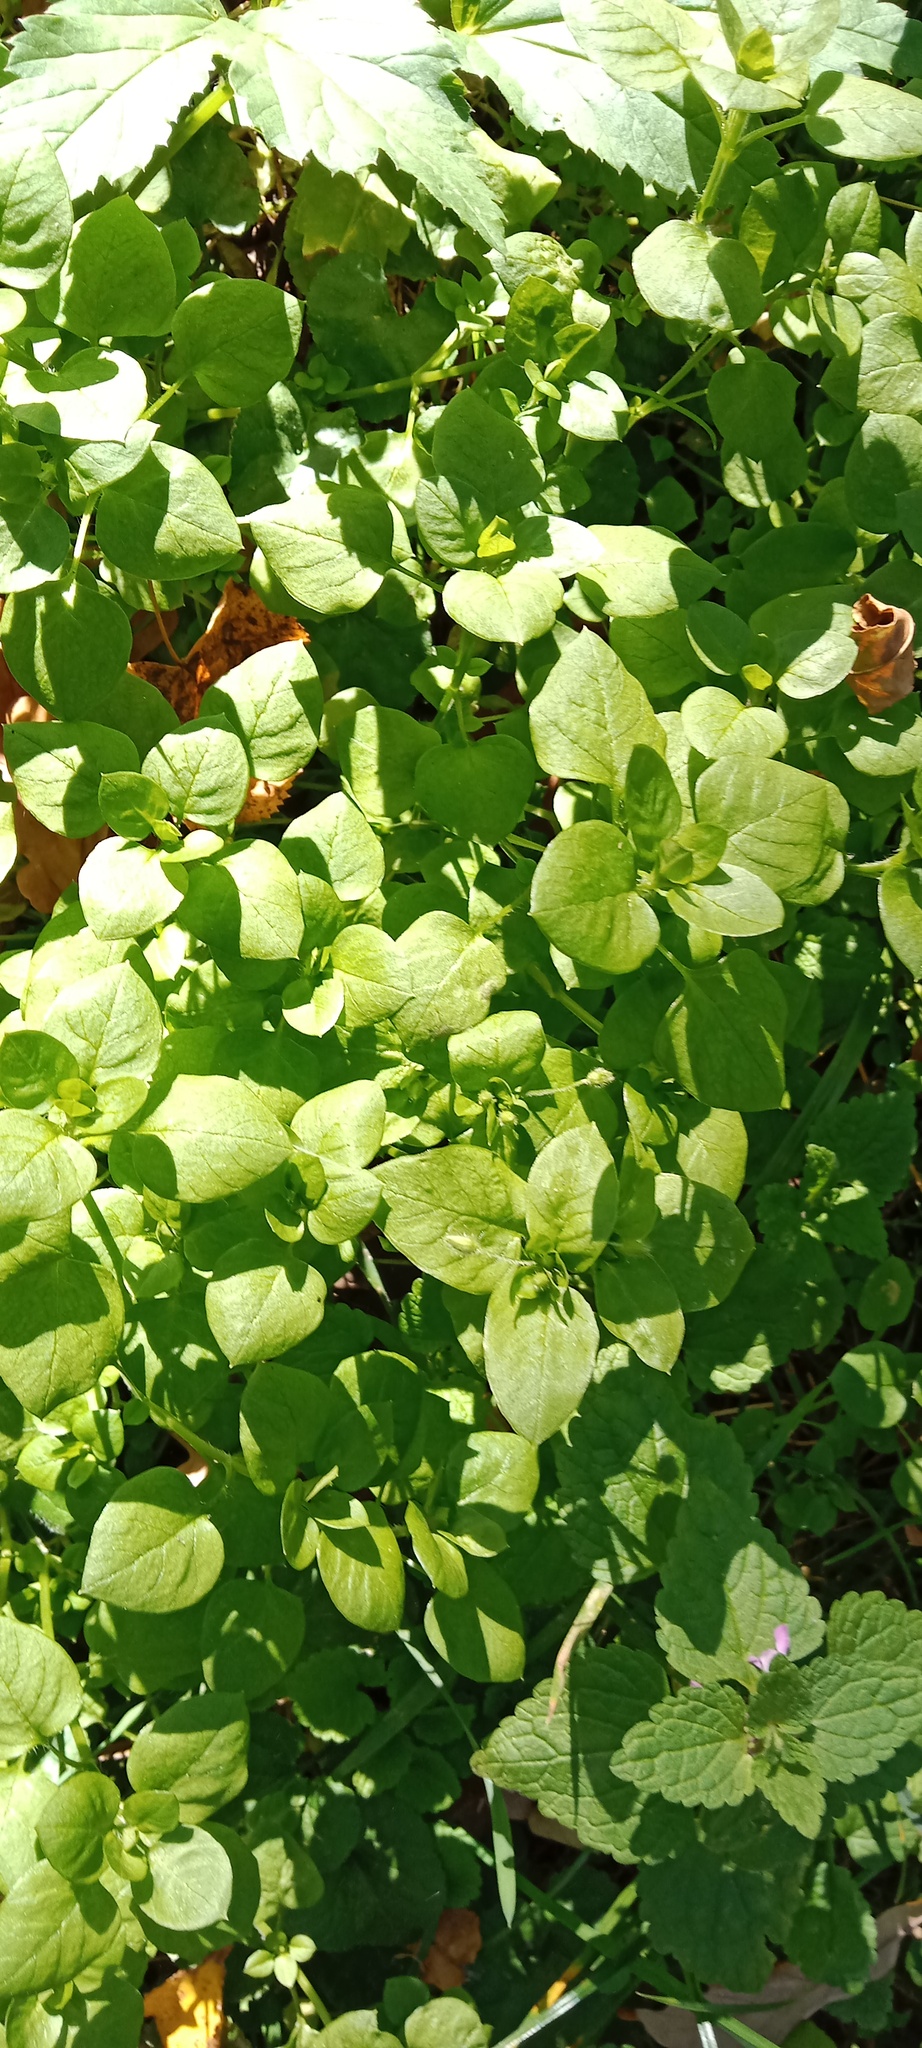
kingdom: Plantae
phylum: Tracheophyta
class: Magnoliopsida
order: Caryophyllales
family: Caryophyllaceae
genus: Stellaria
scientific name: Stellaria media
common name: Common chickweed
